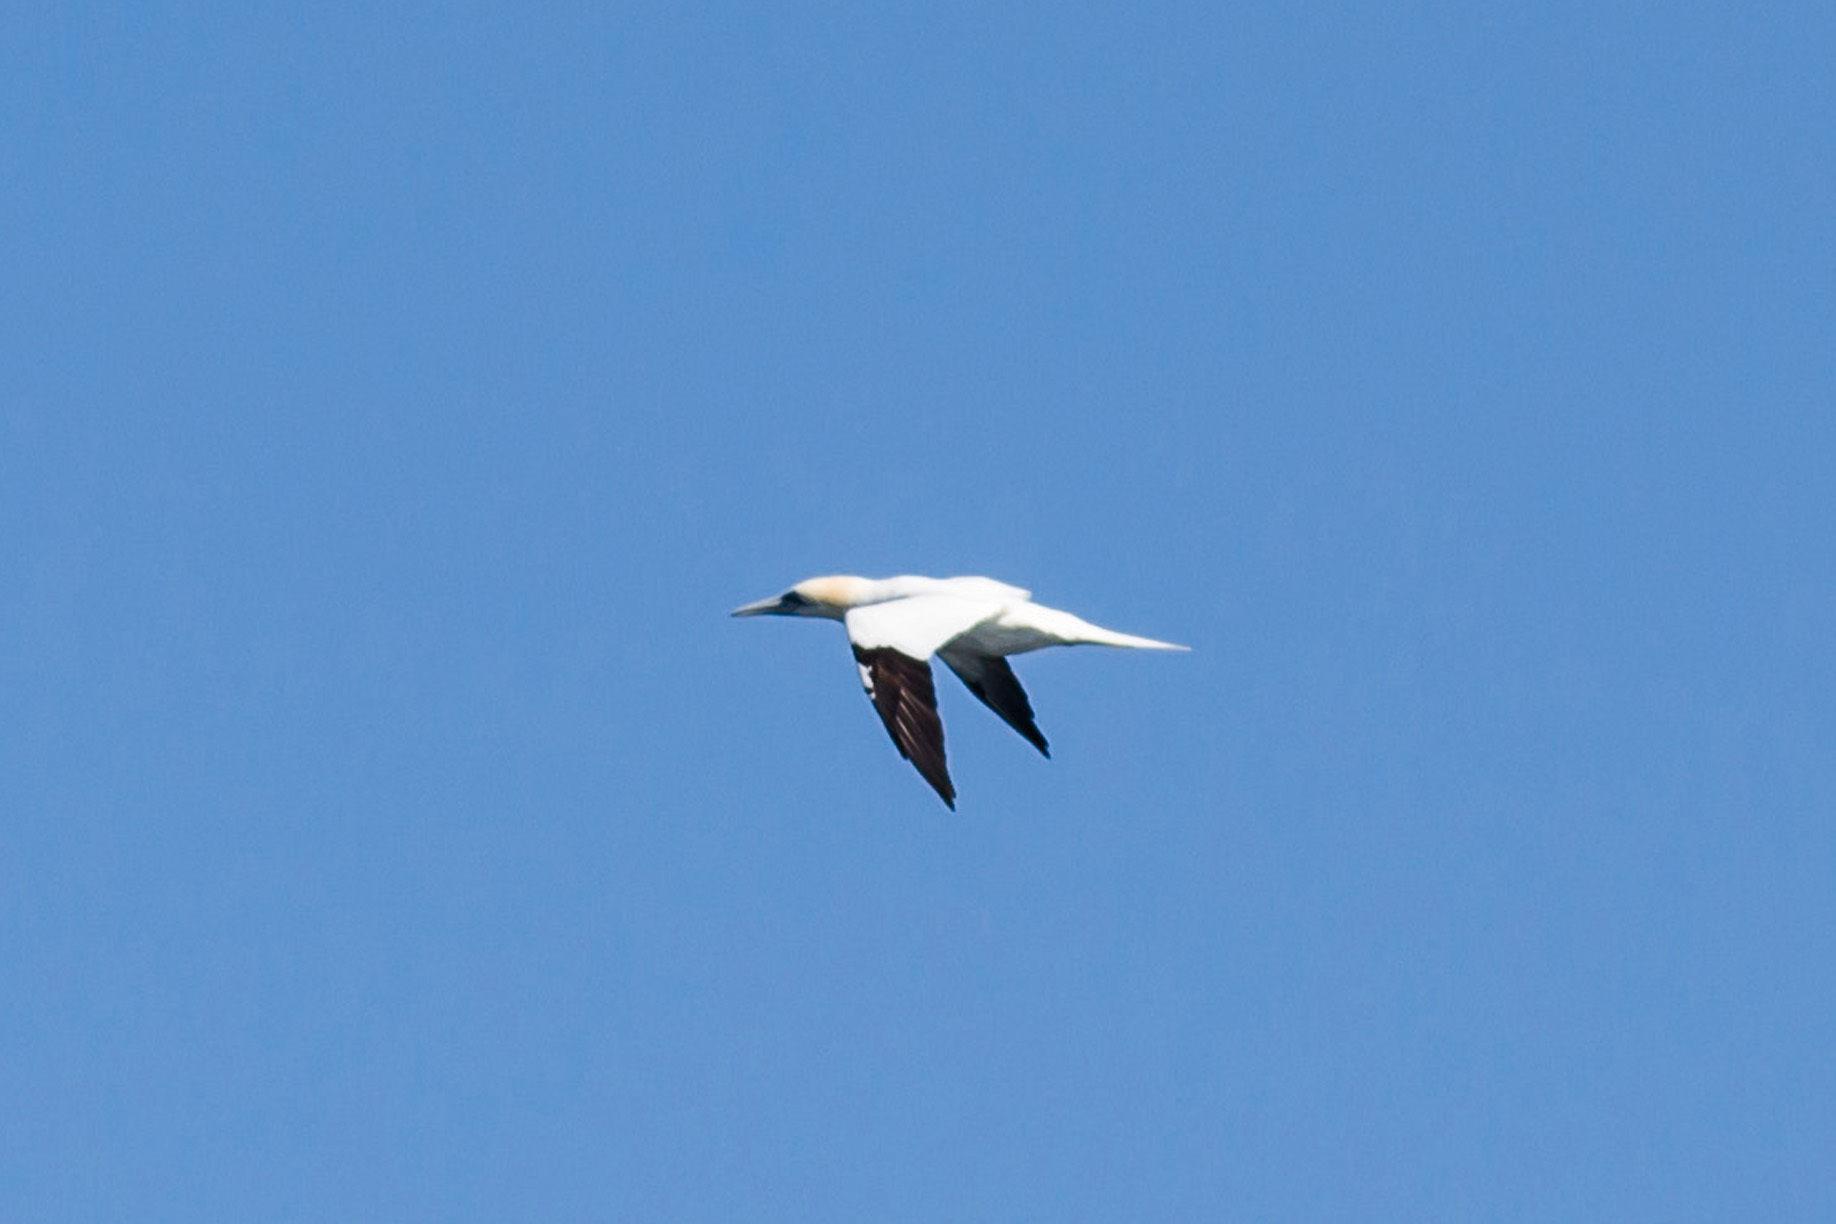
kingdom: Animalia
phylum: Chordata
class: Aves
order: Suliformes
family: Sulidae
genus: Morus
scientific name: Morus bassanus
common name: Northern gannet
